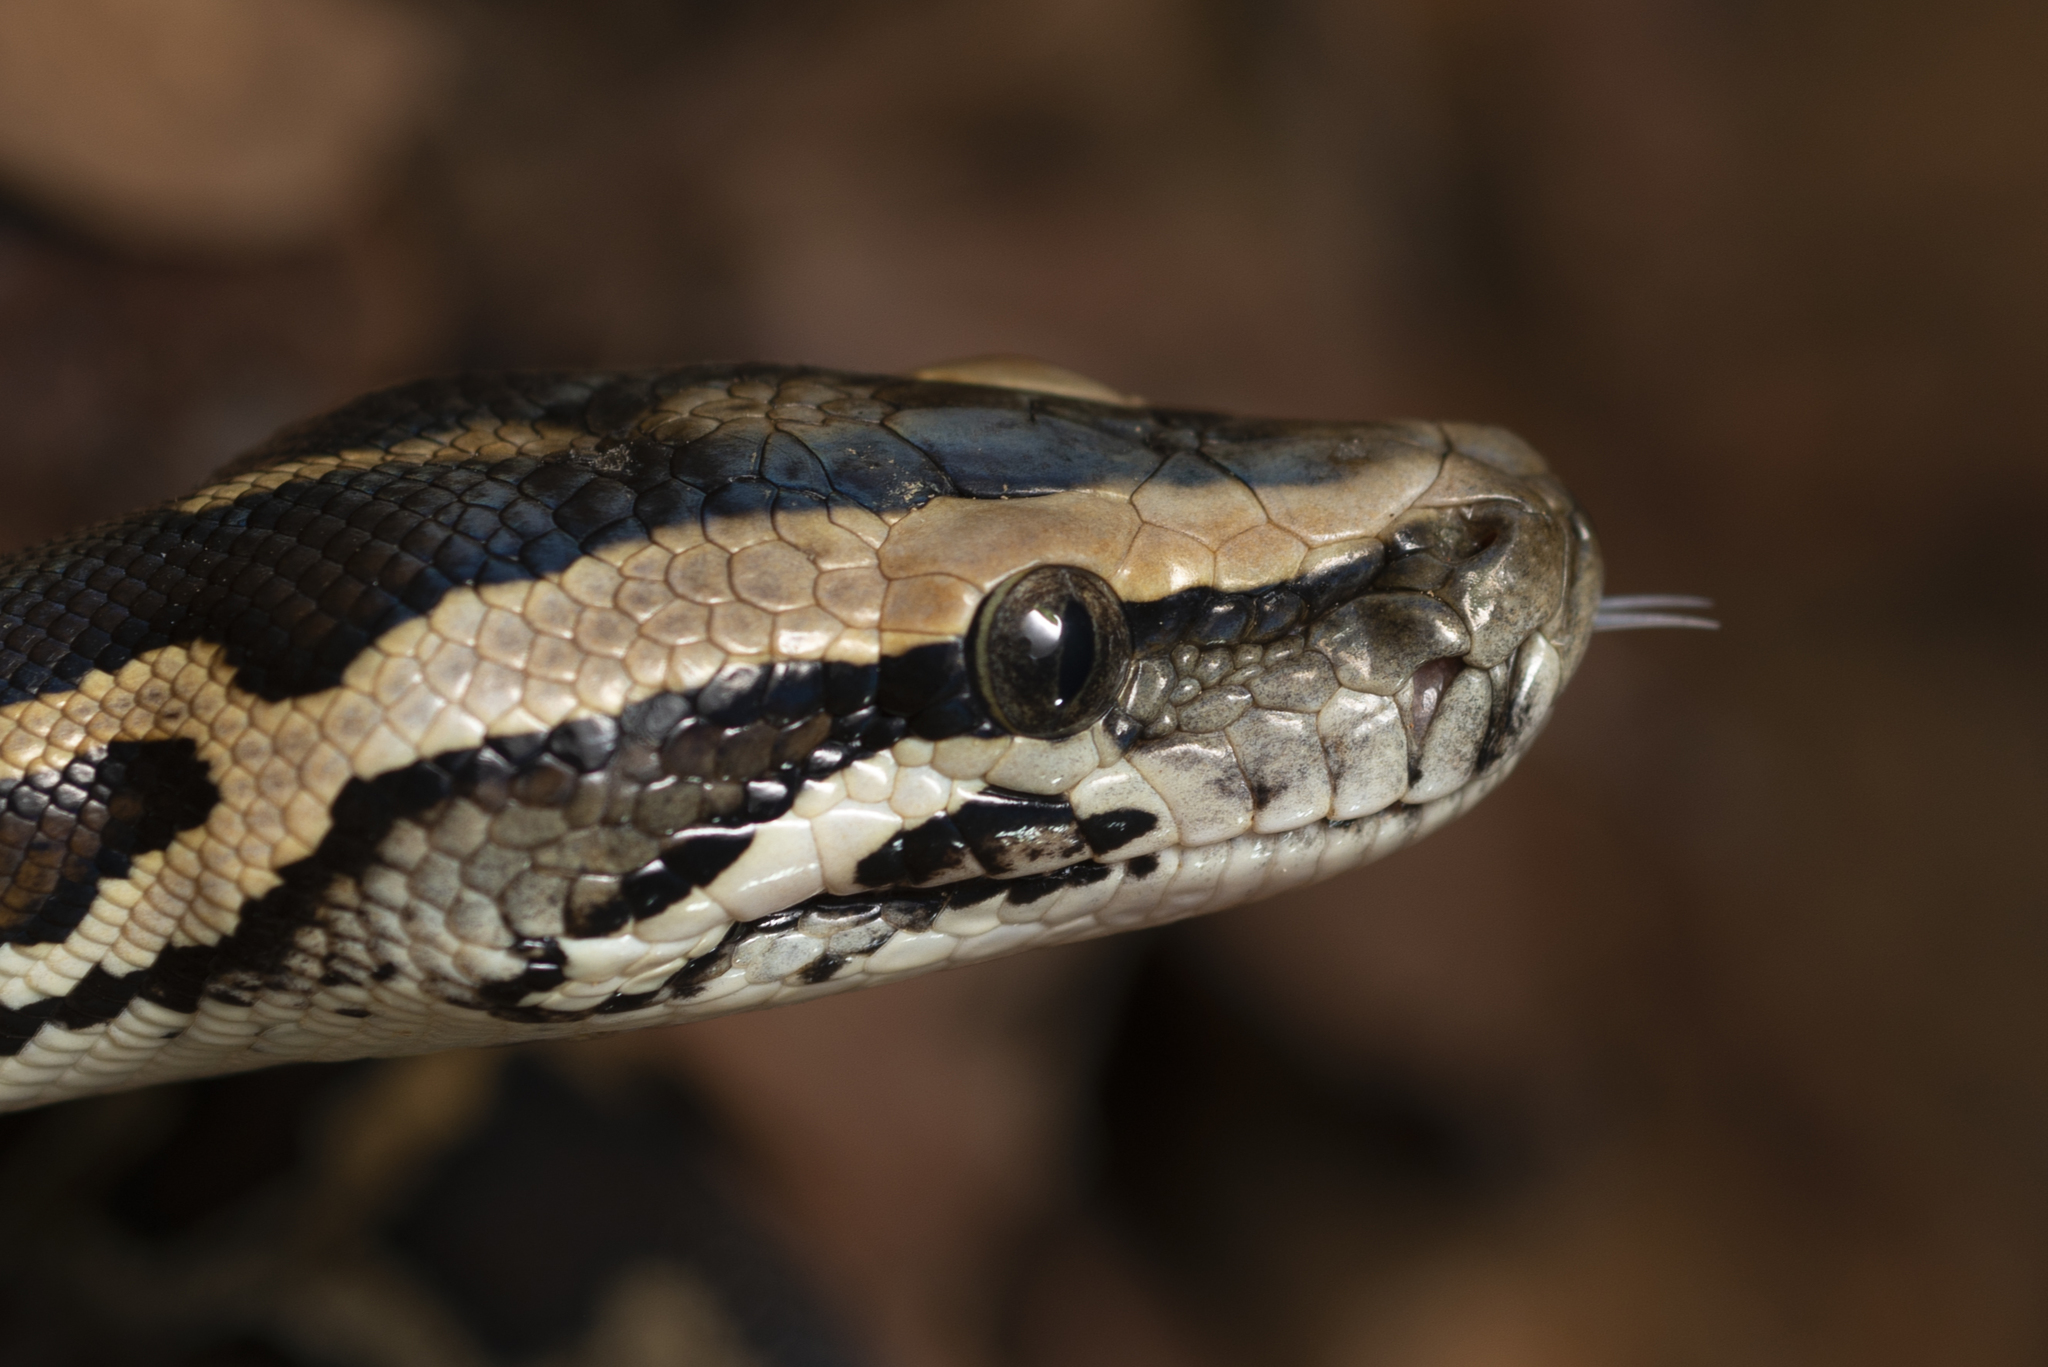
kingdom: Animalia
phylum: Chordata
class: Squamata
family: Pythonidae
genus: Python
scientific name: Python bivittatus
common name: Burmese python
